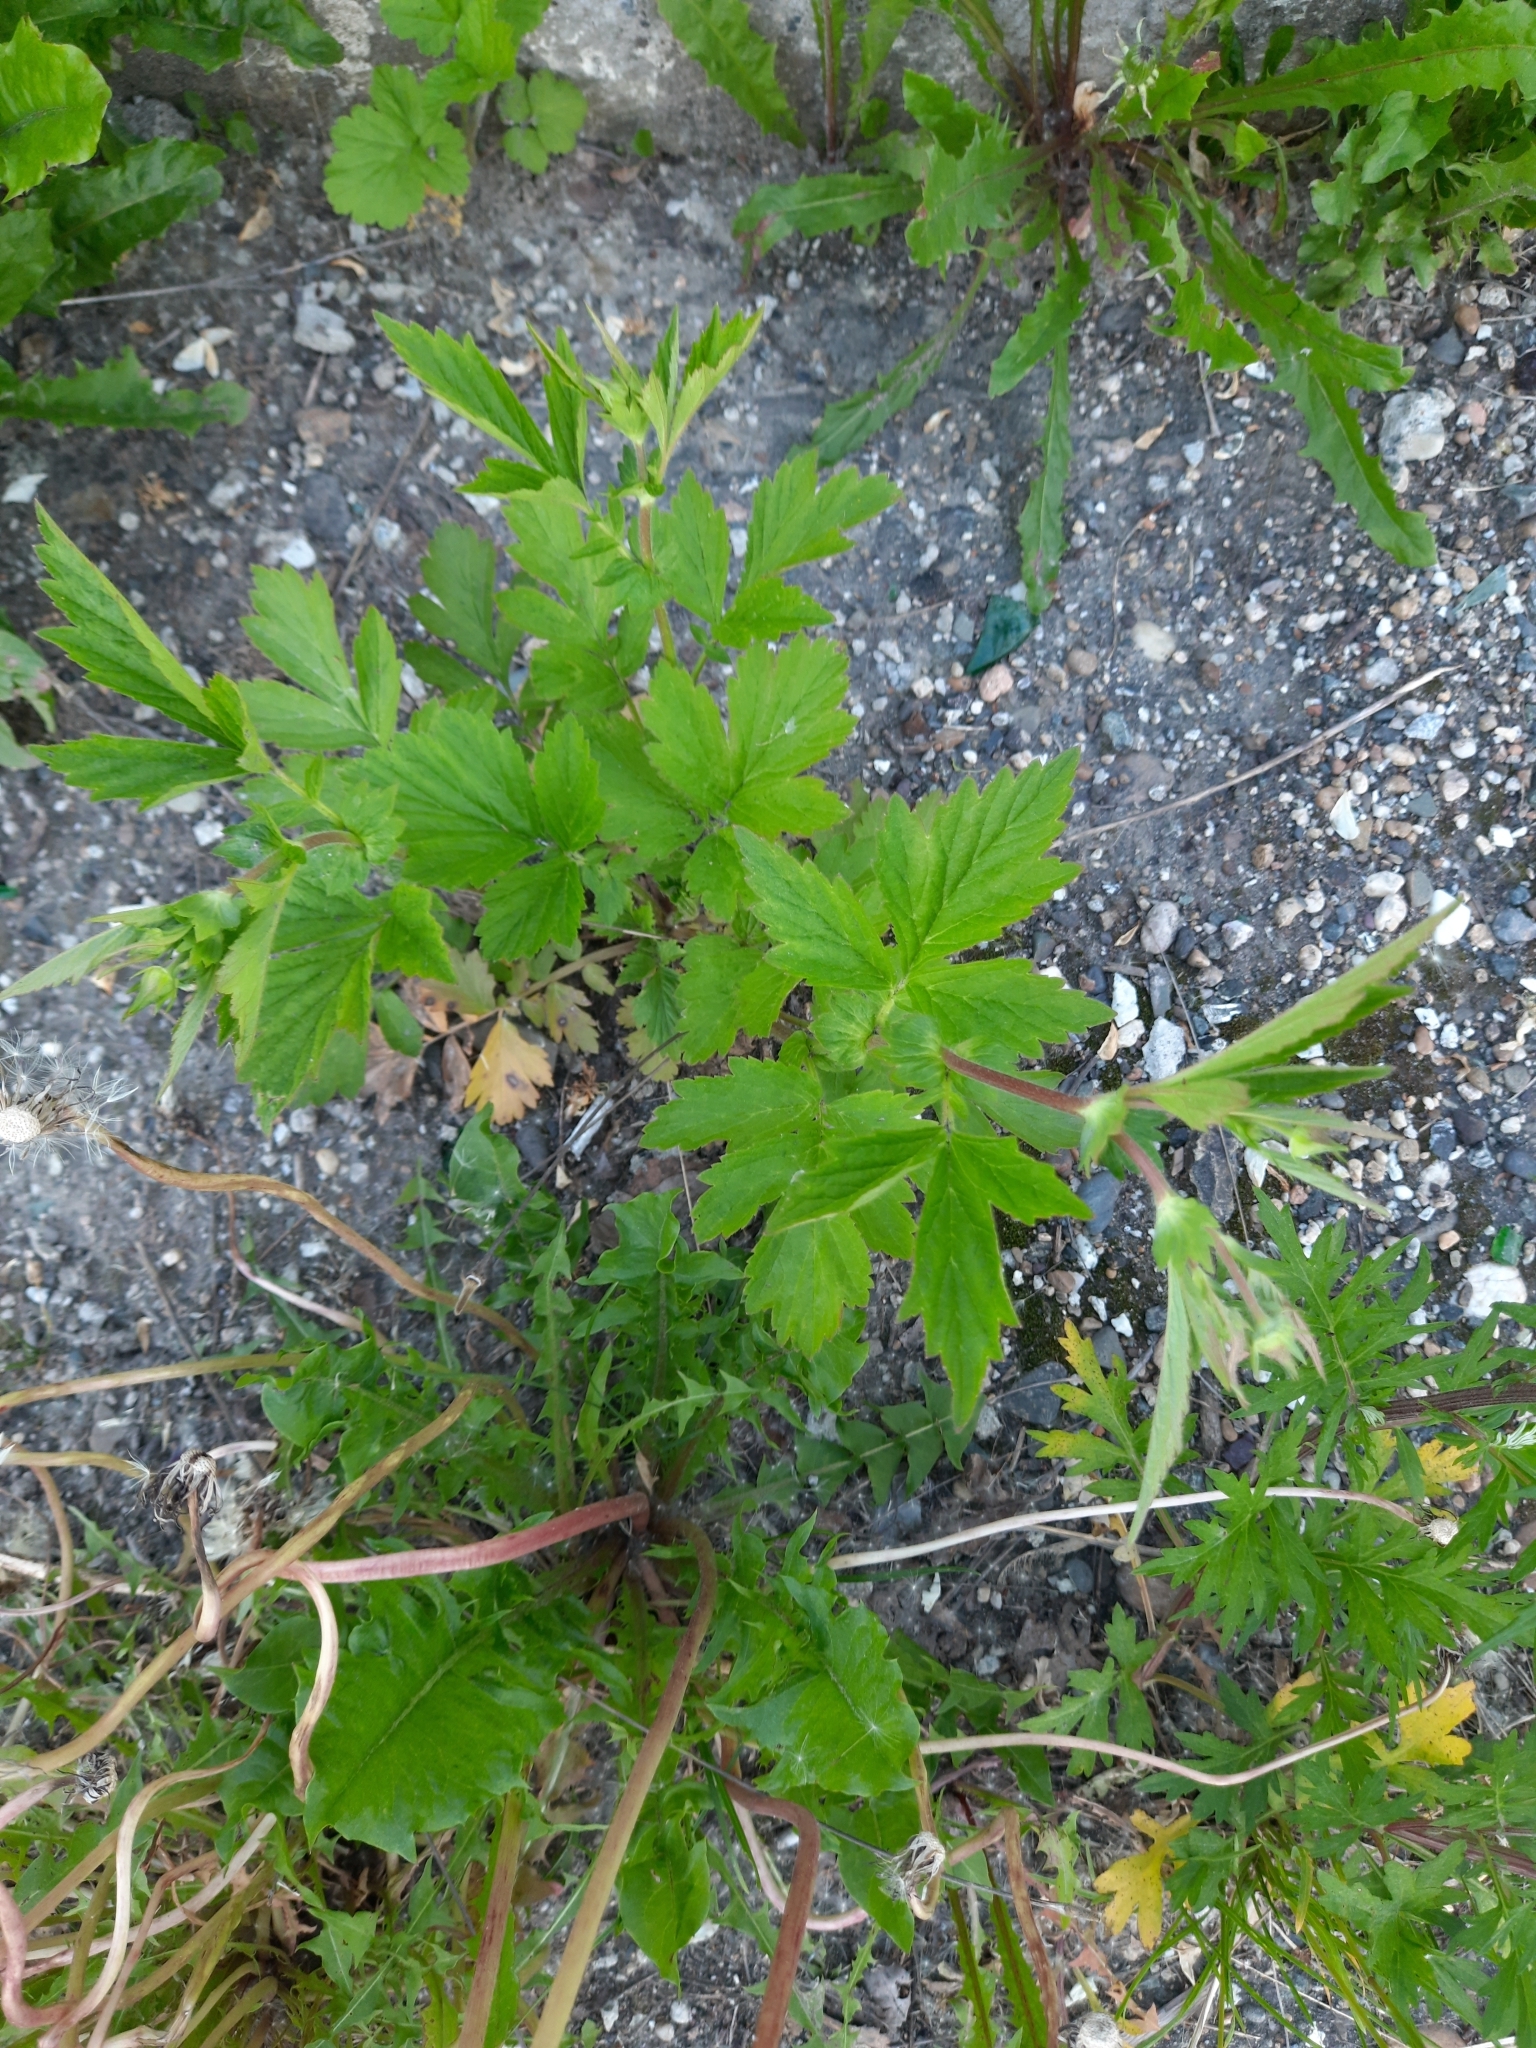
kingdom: Plantae
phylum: Tracheophyta
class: Magnoliopsida
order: Rosales
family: Rosaceae
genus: Geum
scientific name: Geum aleppicum
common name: Yellow avens
